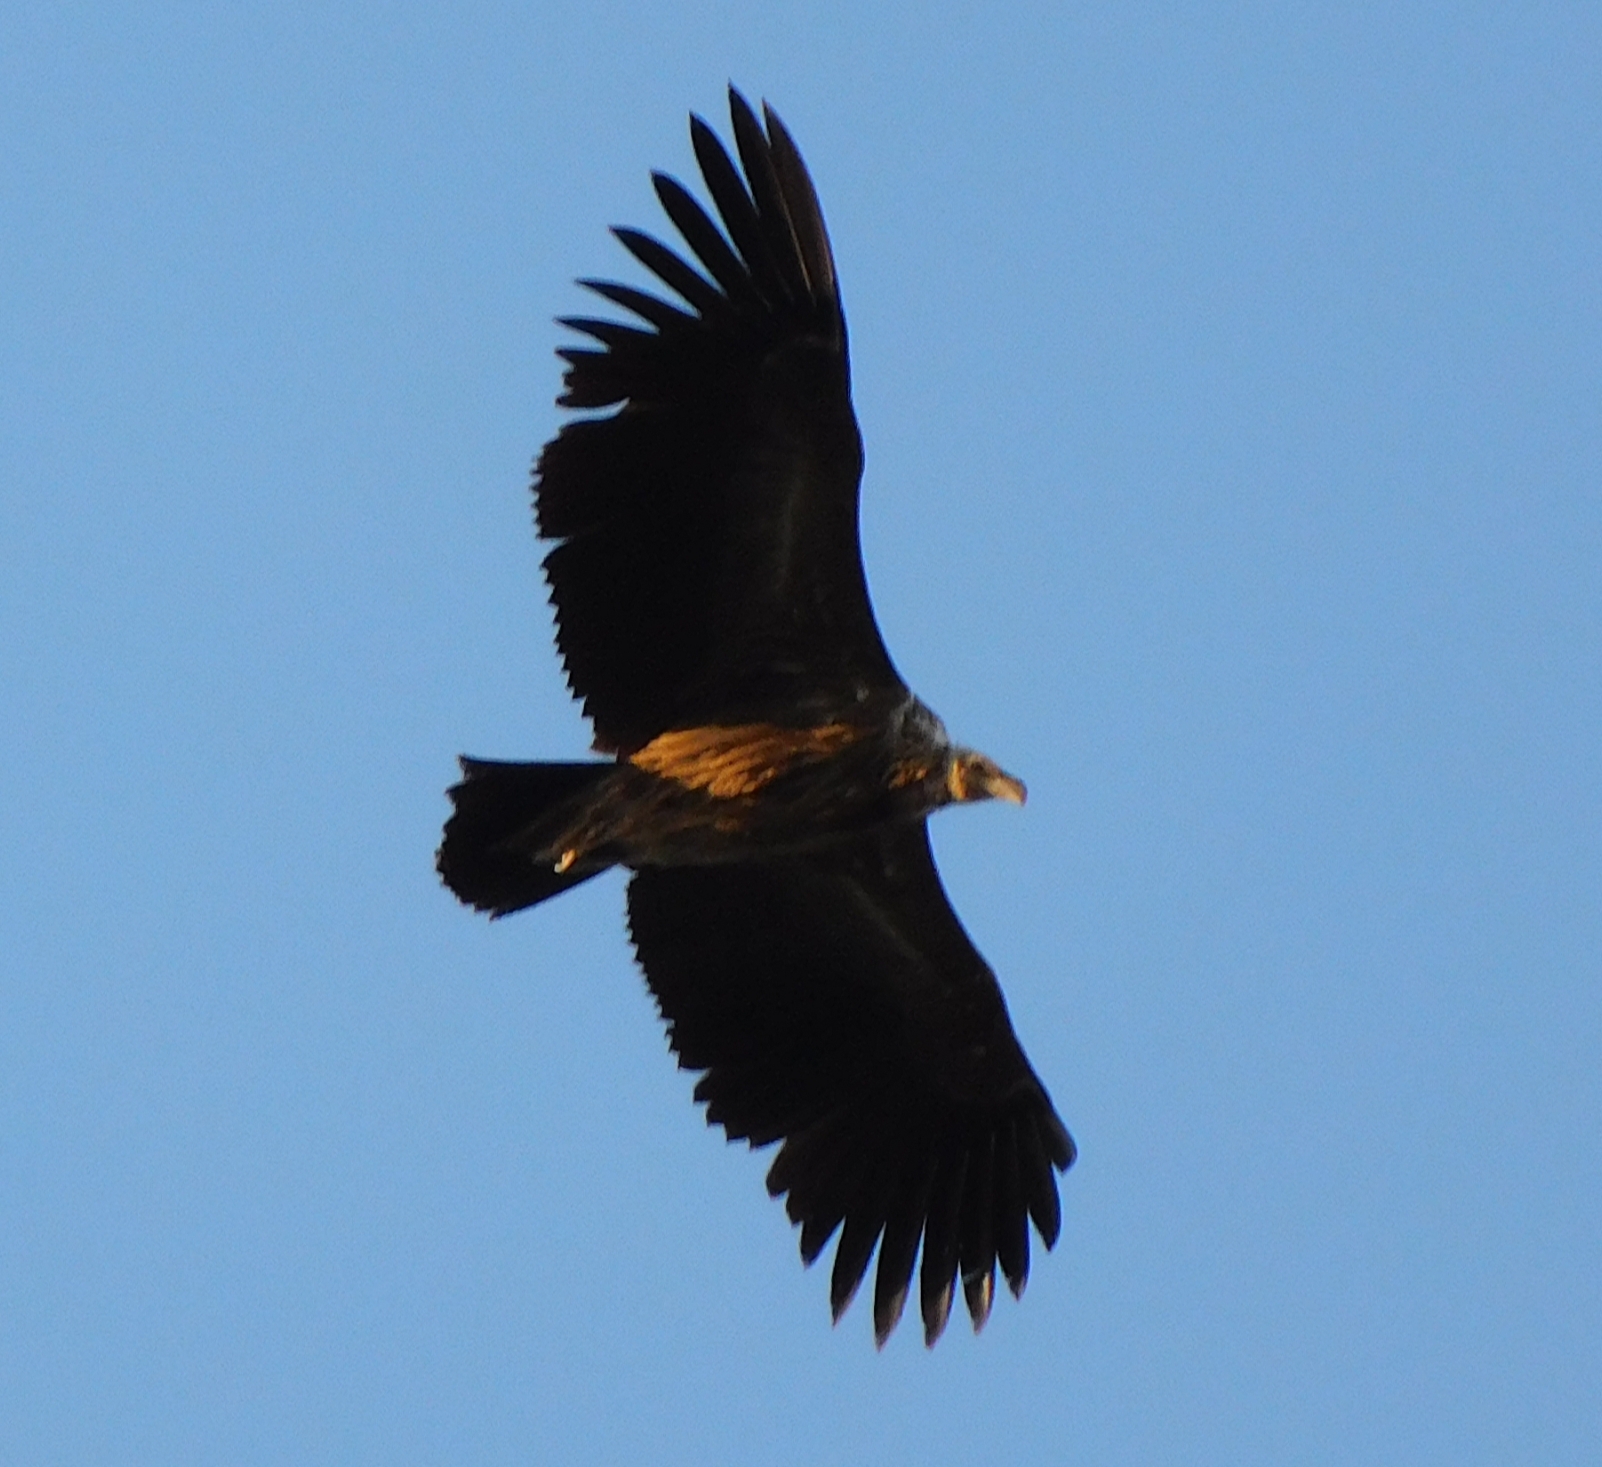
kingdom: Animalia
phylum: Chordata
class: Aves
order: Accipitriformes
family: Accipitridae
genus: Aegypius
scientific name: Aegypius monachus
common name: Cinereous vulture
